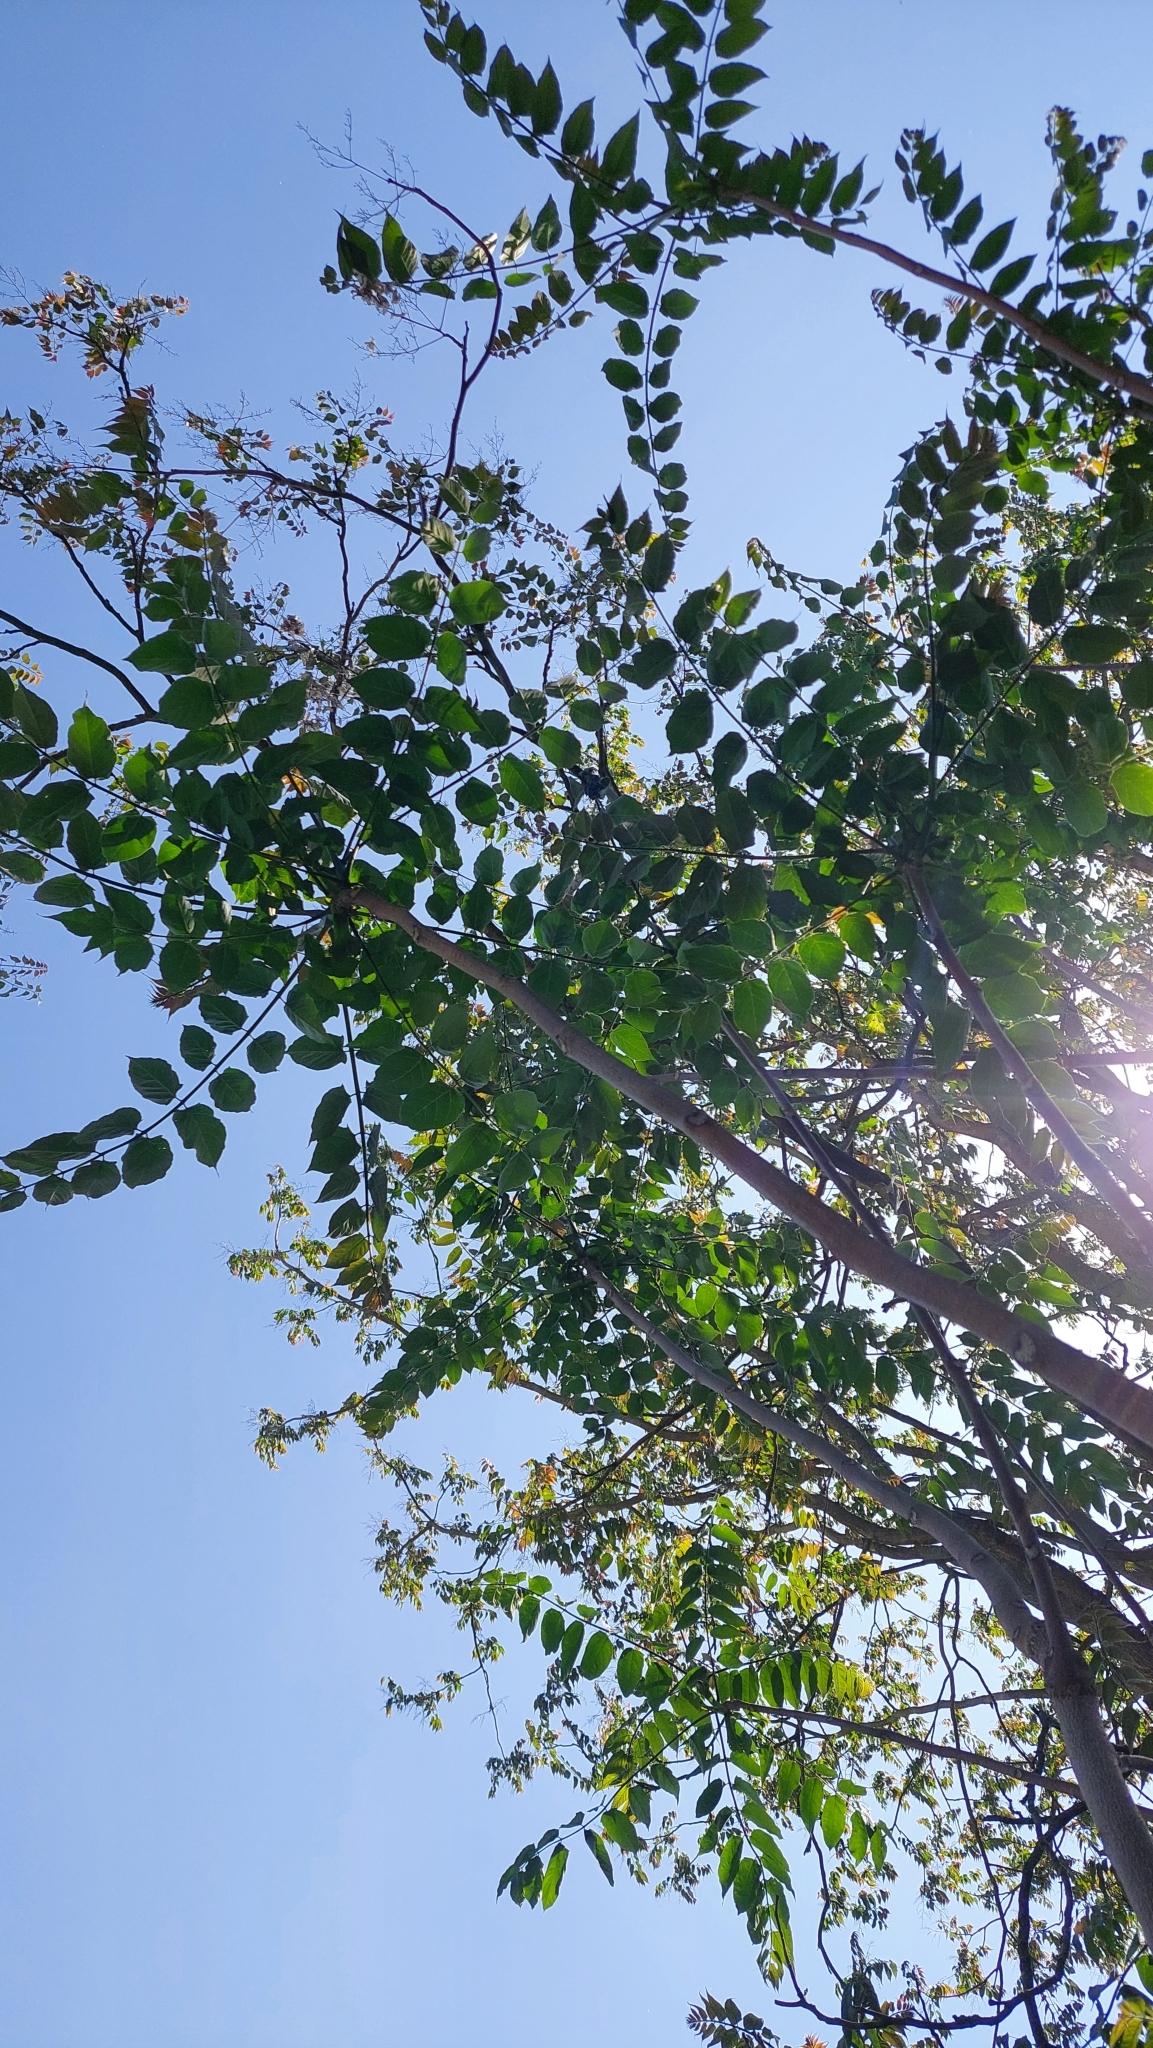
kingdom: Plantae
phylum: Tracheophyta
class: Magnoliopsida
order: Sapindales
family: Simaroubaceae
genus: Ailanthus
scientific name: Ailanthus altissima
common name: Tree-of-heaven
